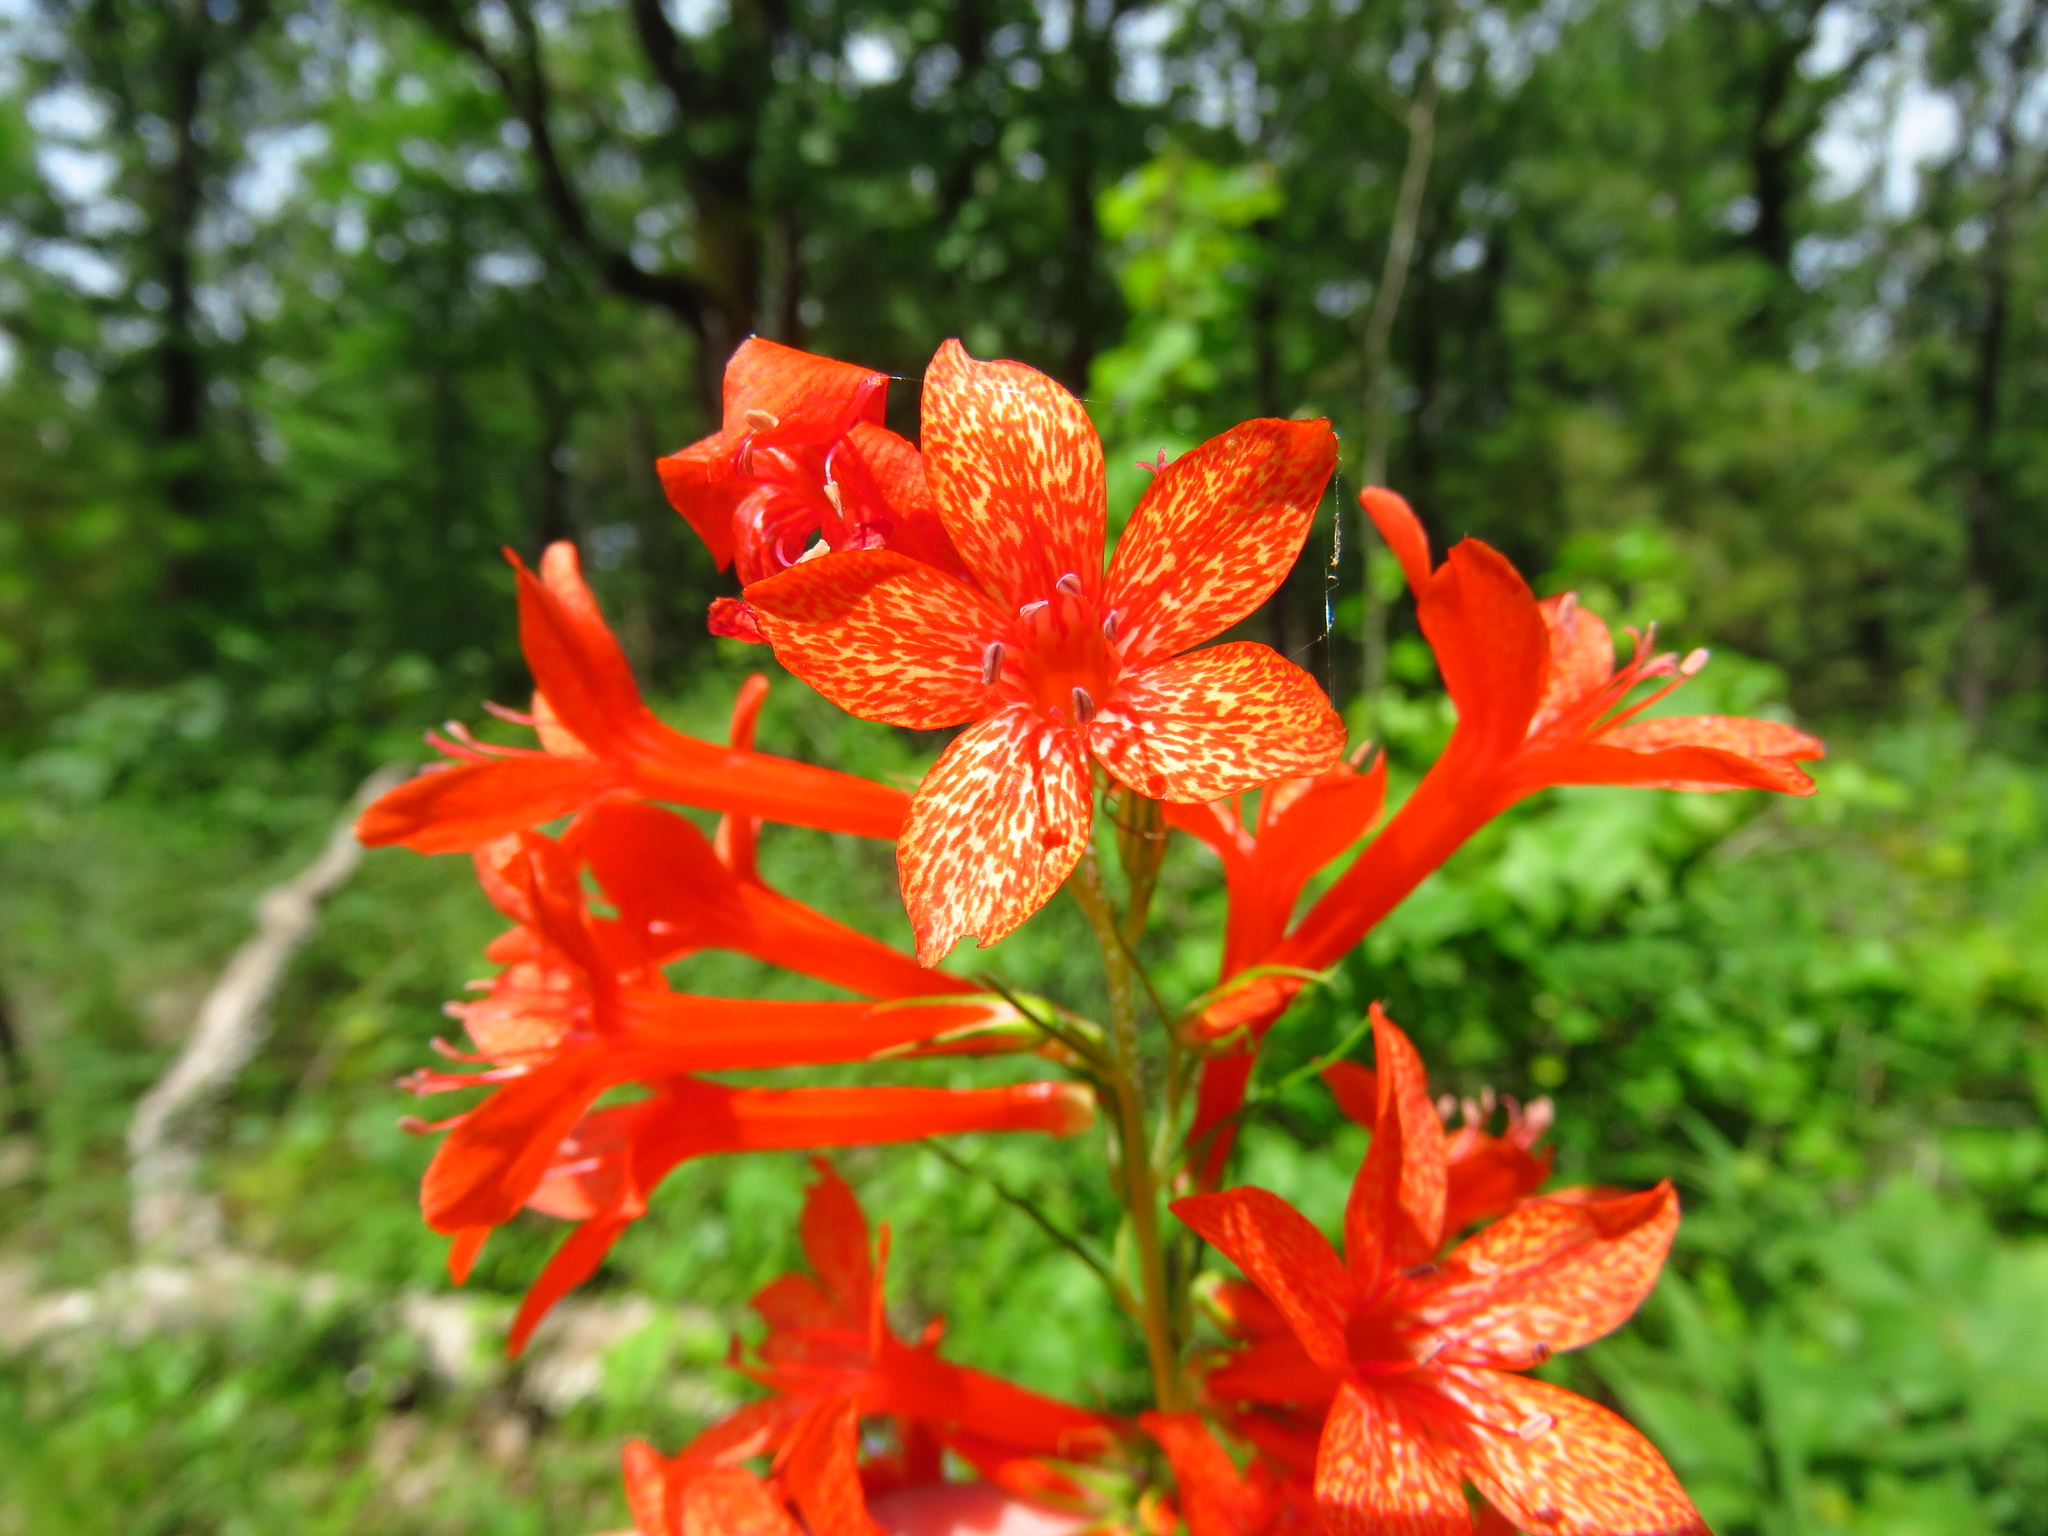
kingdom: Plantae
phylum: Tracheophyta
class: Magnoliopsida
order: Ericales
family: Polemoniaceae
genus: Ipomopsis
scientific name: Ipomopsis rubra
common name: Skyrocket
